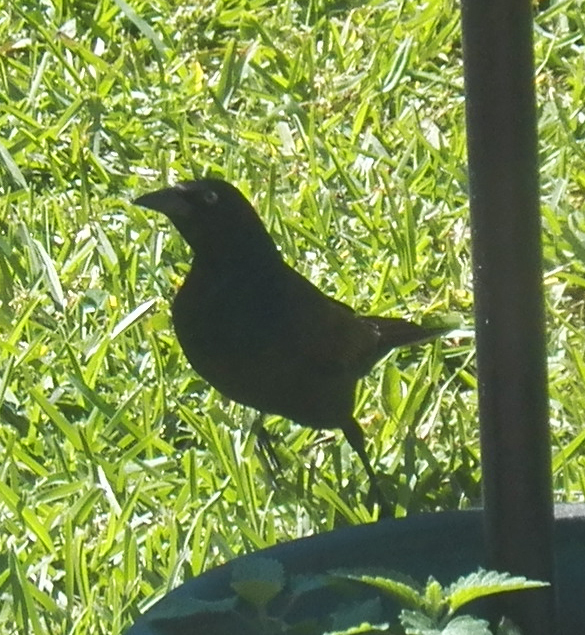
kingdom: Animalia
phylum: Chordata
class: Aves
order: Passeriformes
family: Icteridae
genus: Quiscalus
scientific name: Quiscalus quiscula
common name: Common grackle
